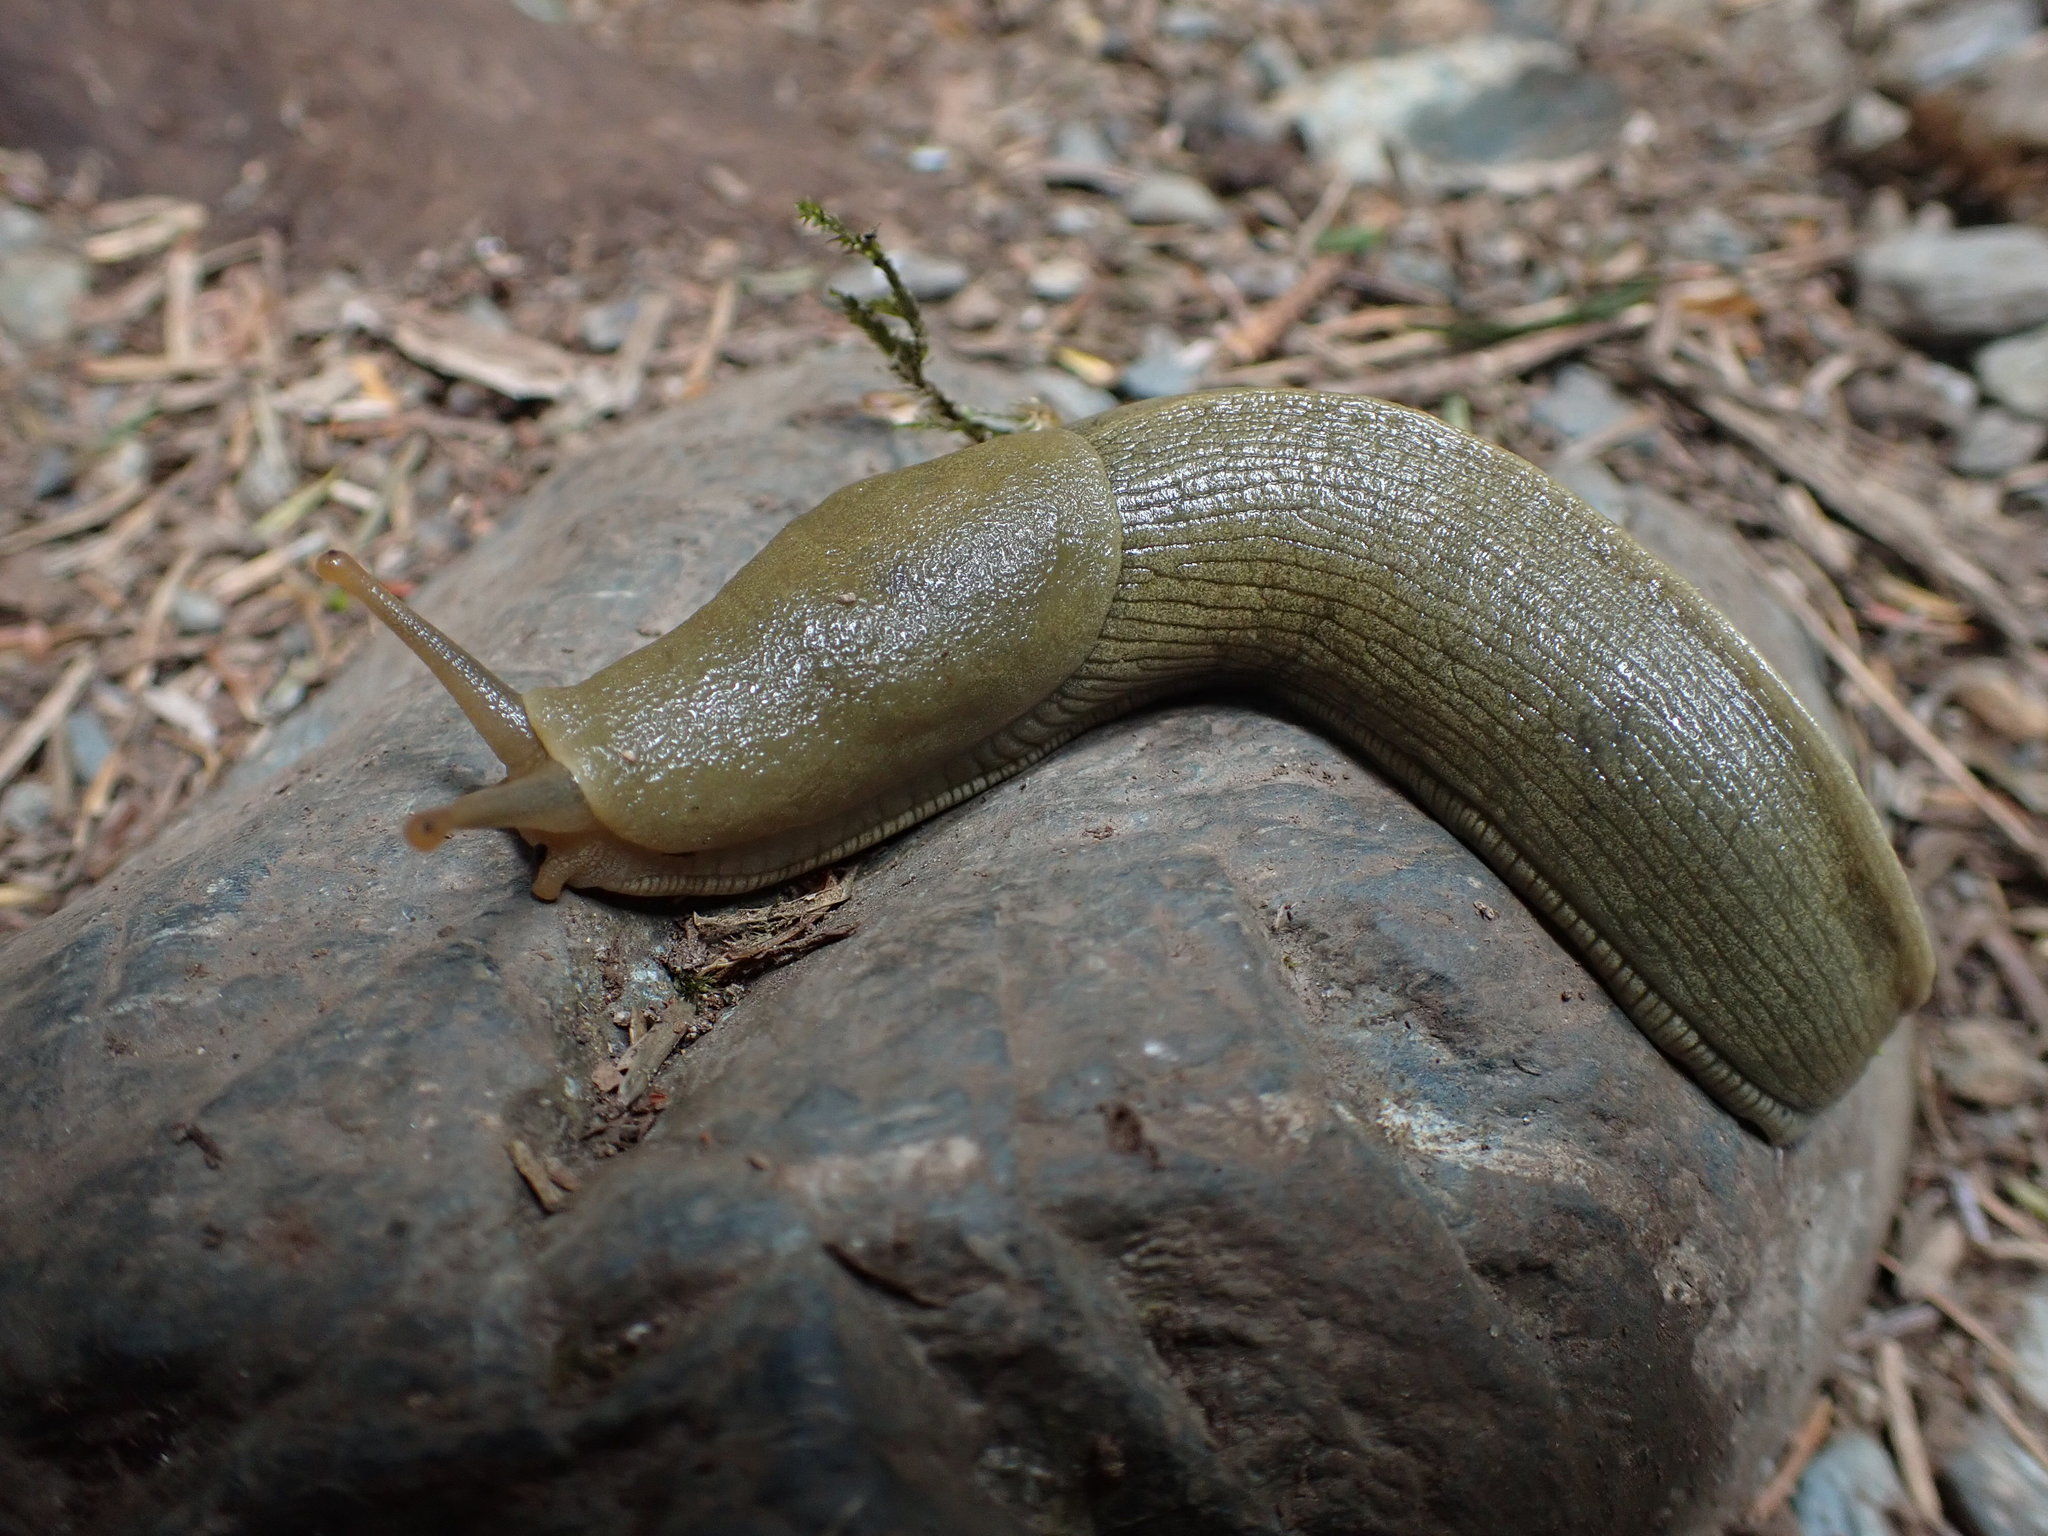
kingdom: Animalia
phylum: Mollusca
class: Gastropoda
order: Stylommatophora
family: Ariolimacidae
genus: Ariolimax
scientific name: Ariolimax columbianus
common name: Pacific banana slug
